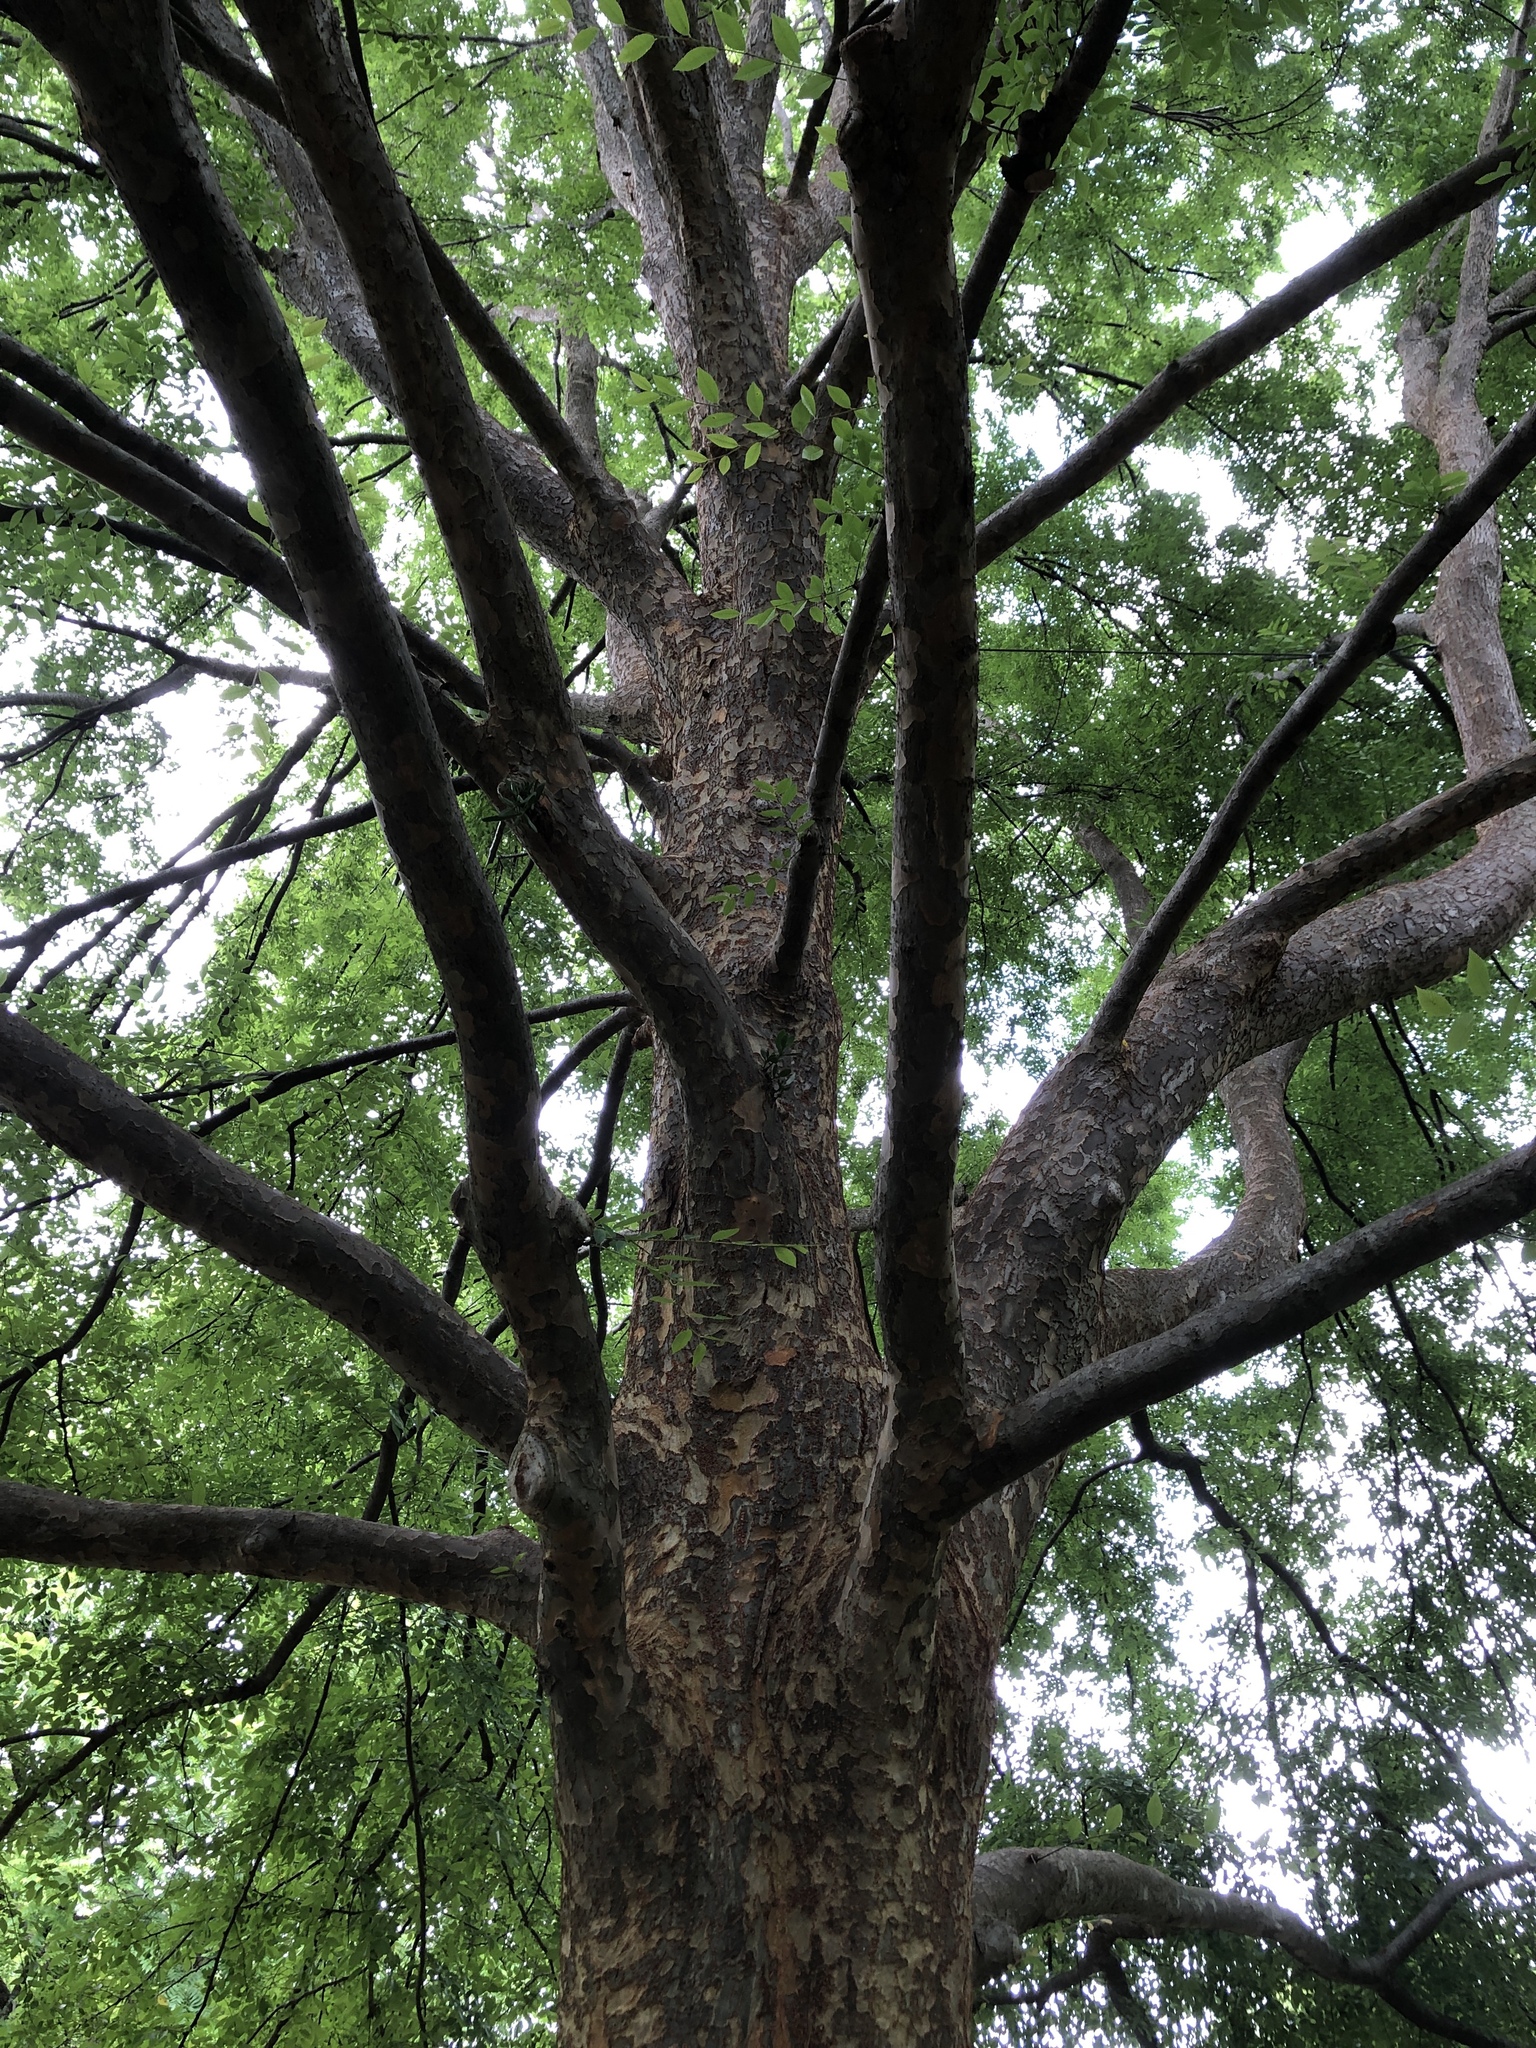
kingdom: Plantae
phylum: Tracheophyta
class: Magnoliopsida
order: Rosales
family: Ulmaceae
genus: Ulmus
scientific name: Ulmus parvifolia
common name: Chinese elm
